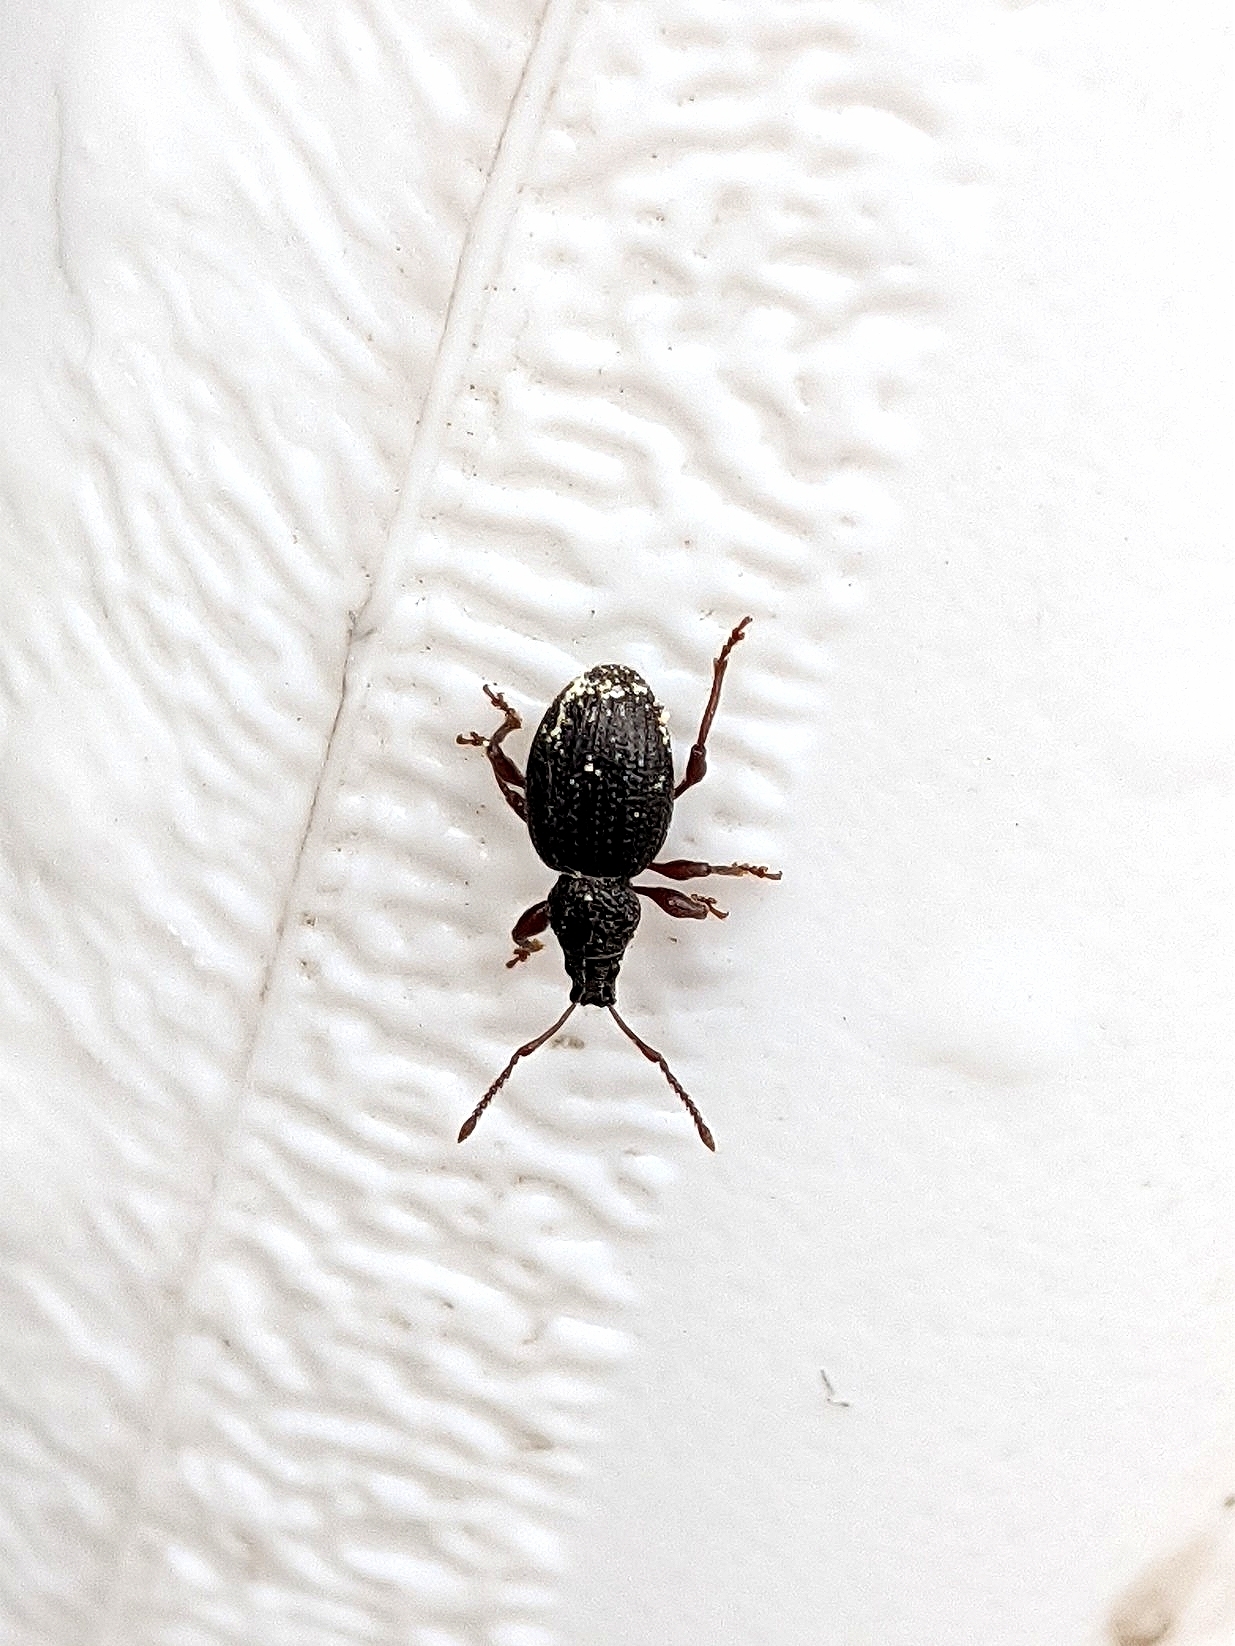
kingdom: Animalia
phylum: Arthropoda
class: Insecta
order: Coleoptera
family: Curculionidae
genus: Otiorhynchus
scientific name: Otiorhynchus ovatus
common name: Strawberry root weevil
